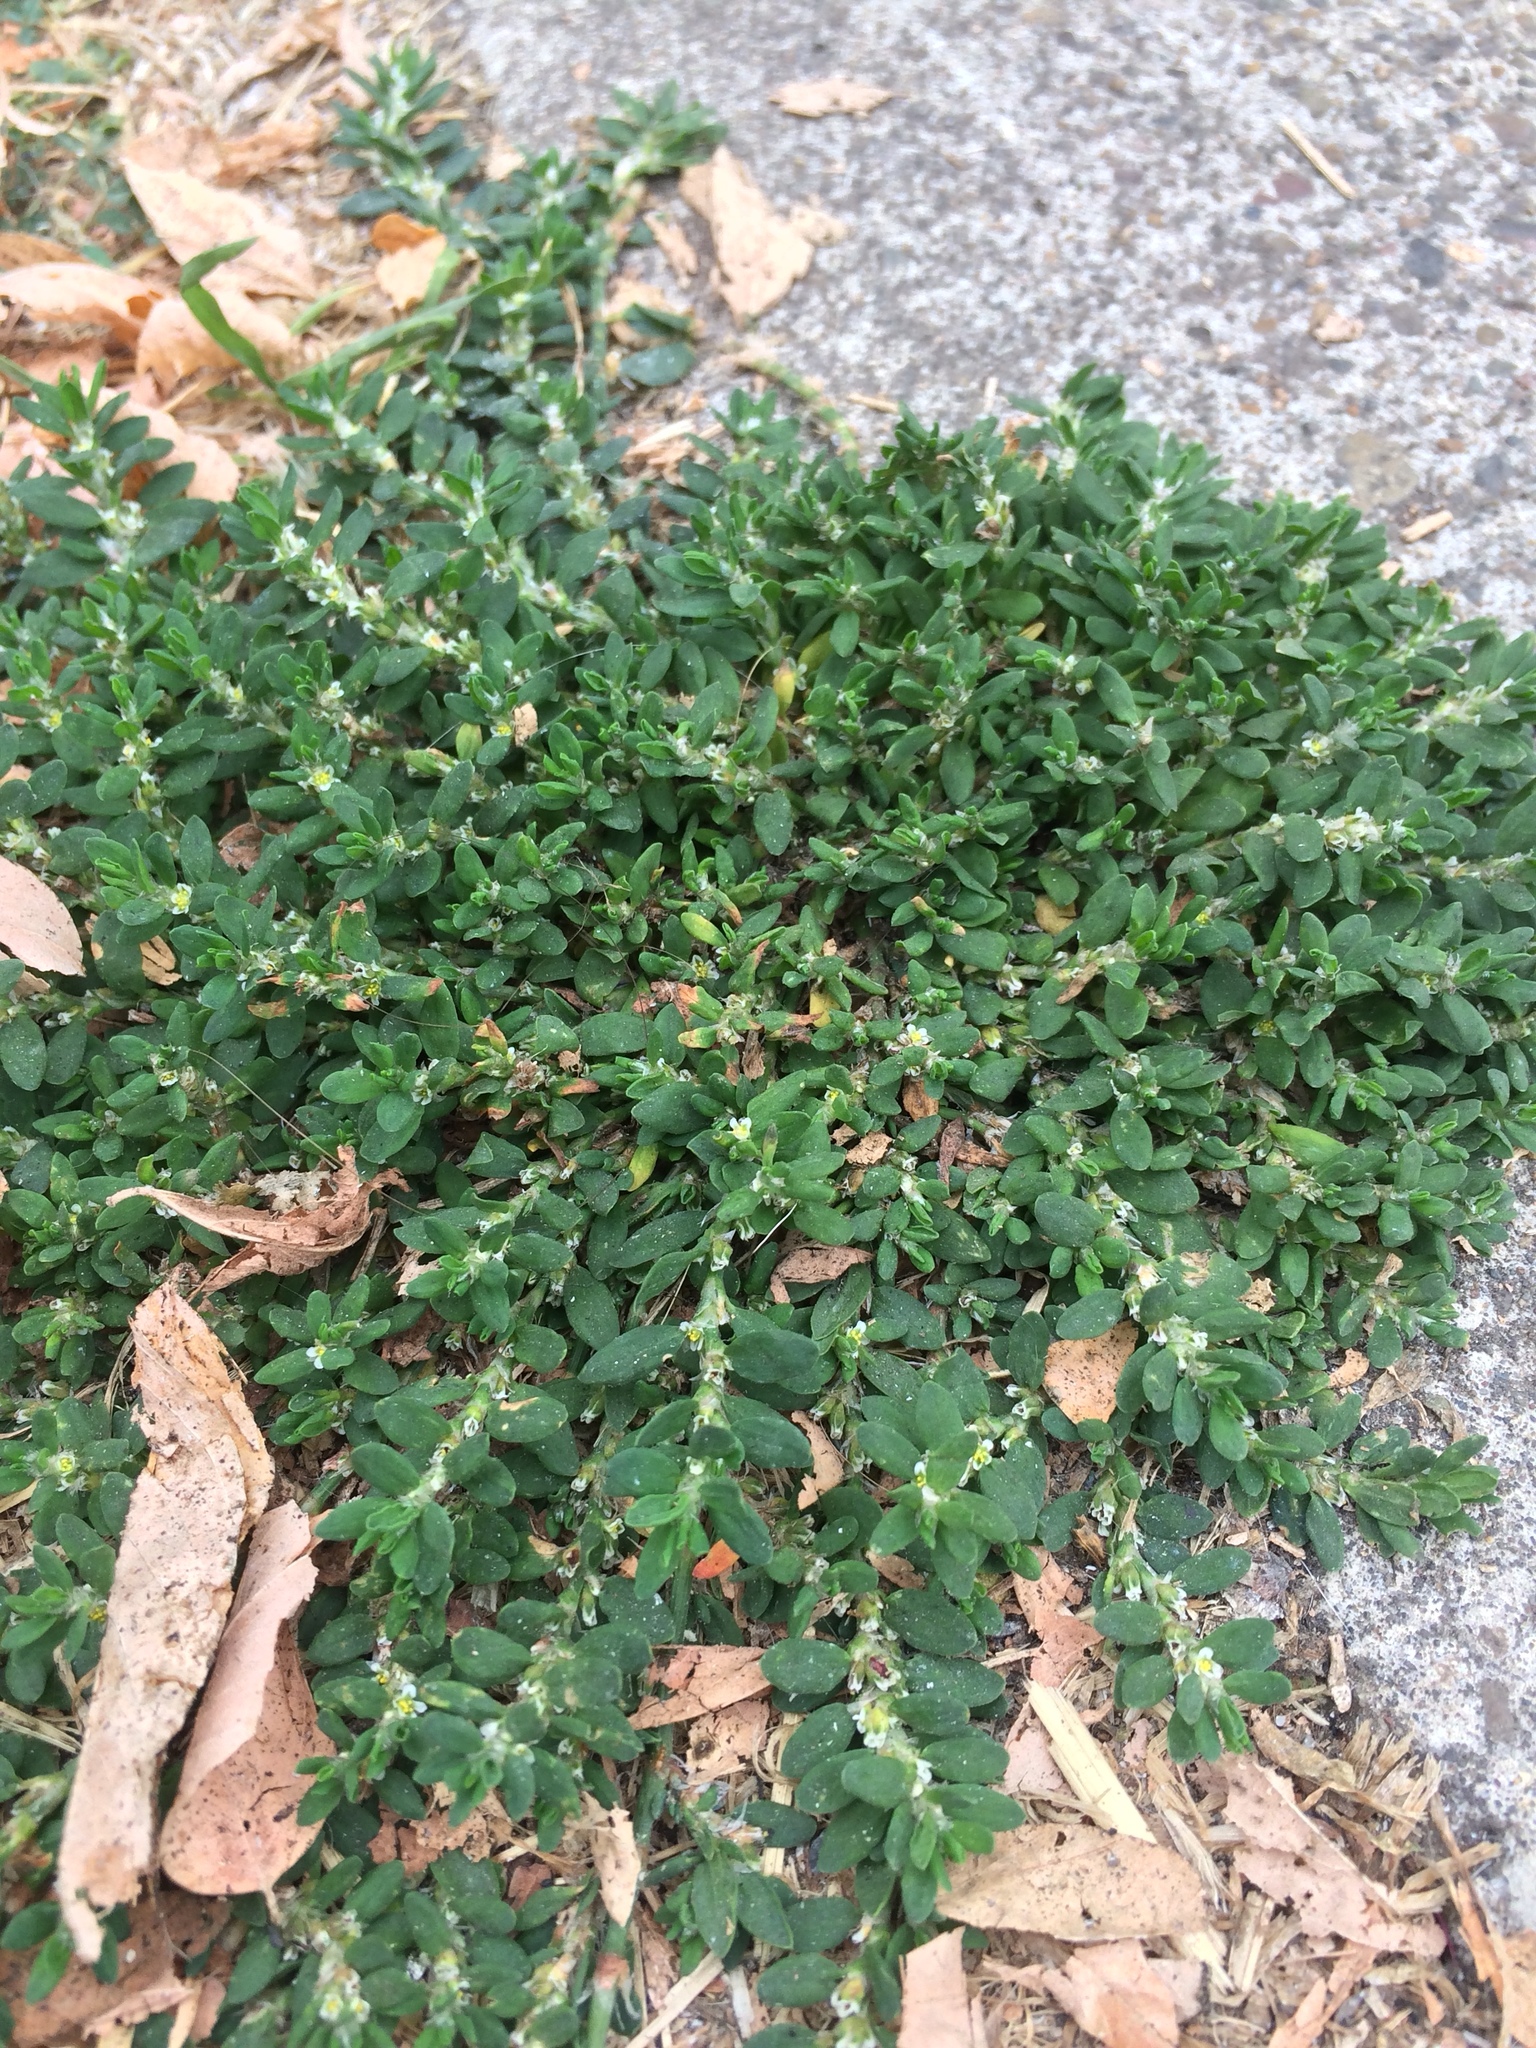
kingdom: Plantae
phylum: Tracheophyta
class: Magnoliopsida
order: Caryophyllales
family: Polygonaceae
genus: Polygonum
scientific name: Polygonum aviculare
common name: Prostrate knotweed
